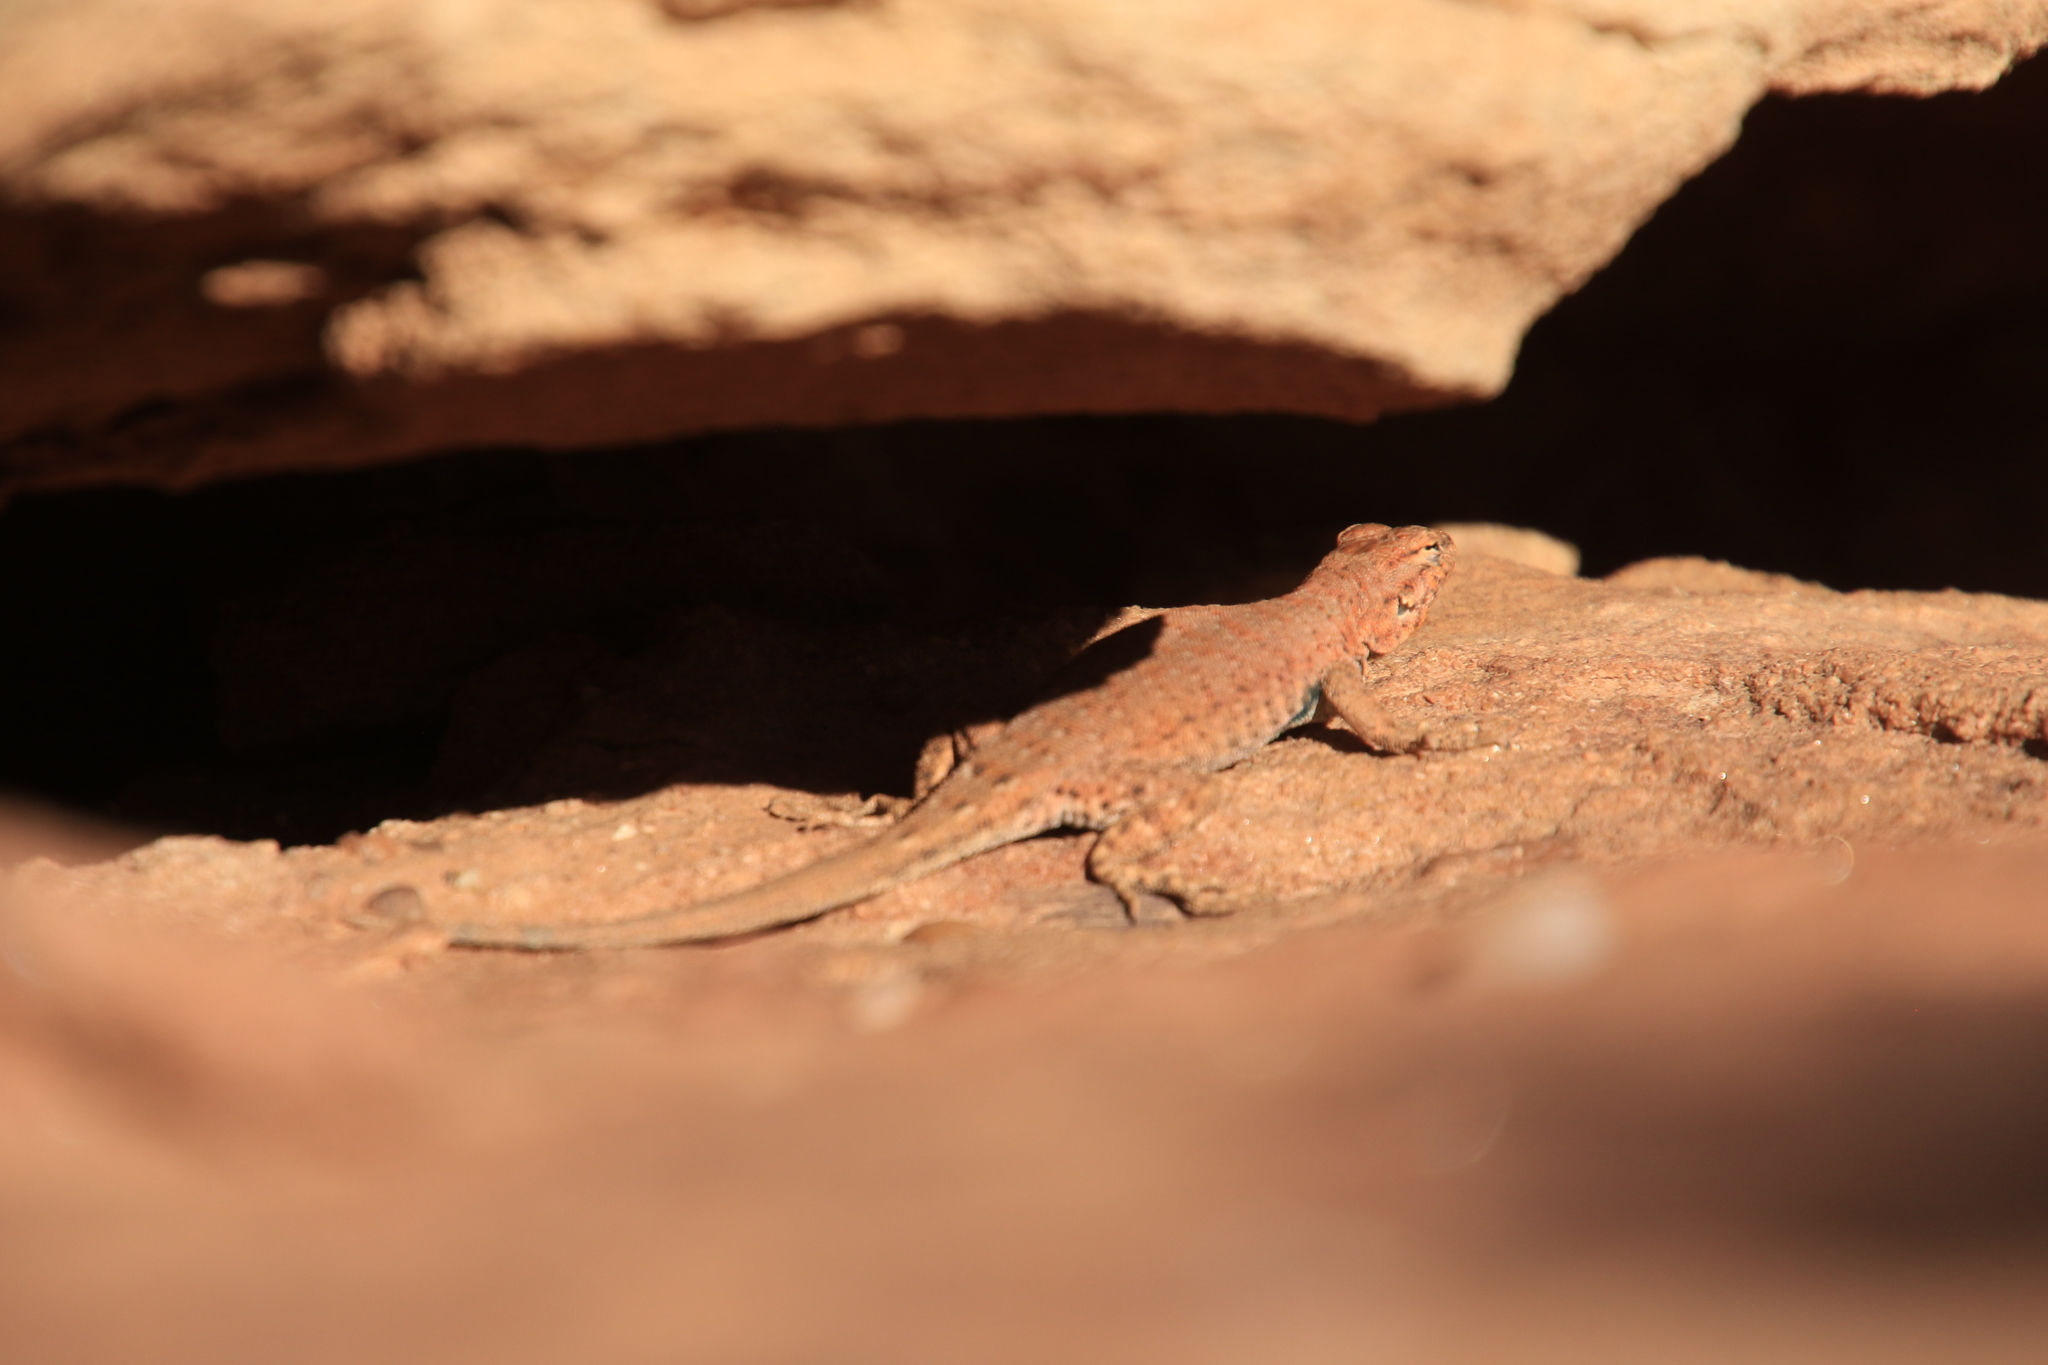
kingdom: Animalia
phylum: Chordata
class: Squamata
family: Phrynosomatidae
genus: Uta
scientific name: Uta stansburiana
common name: Side-blotched lizard
